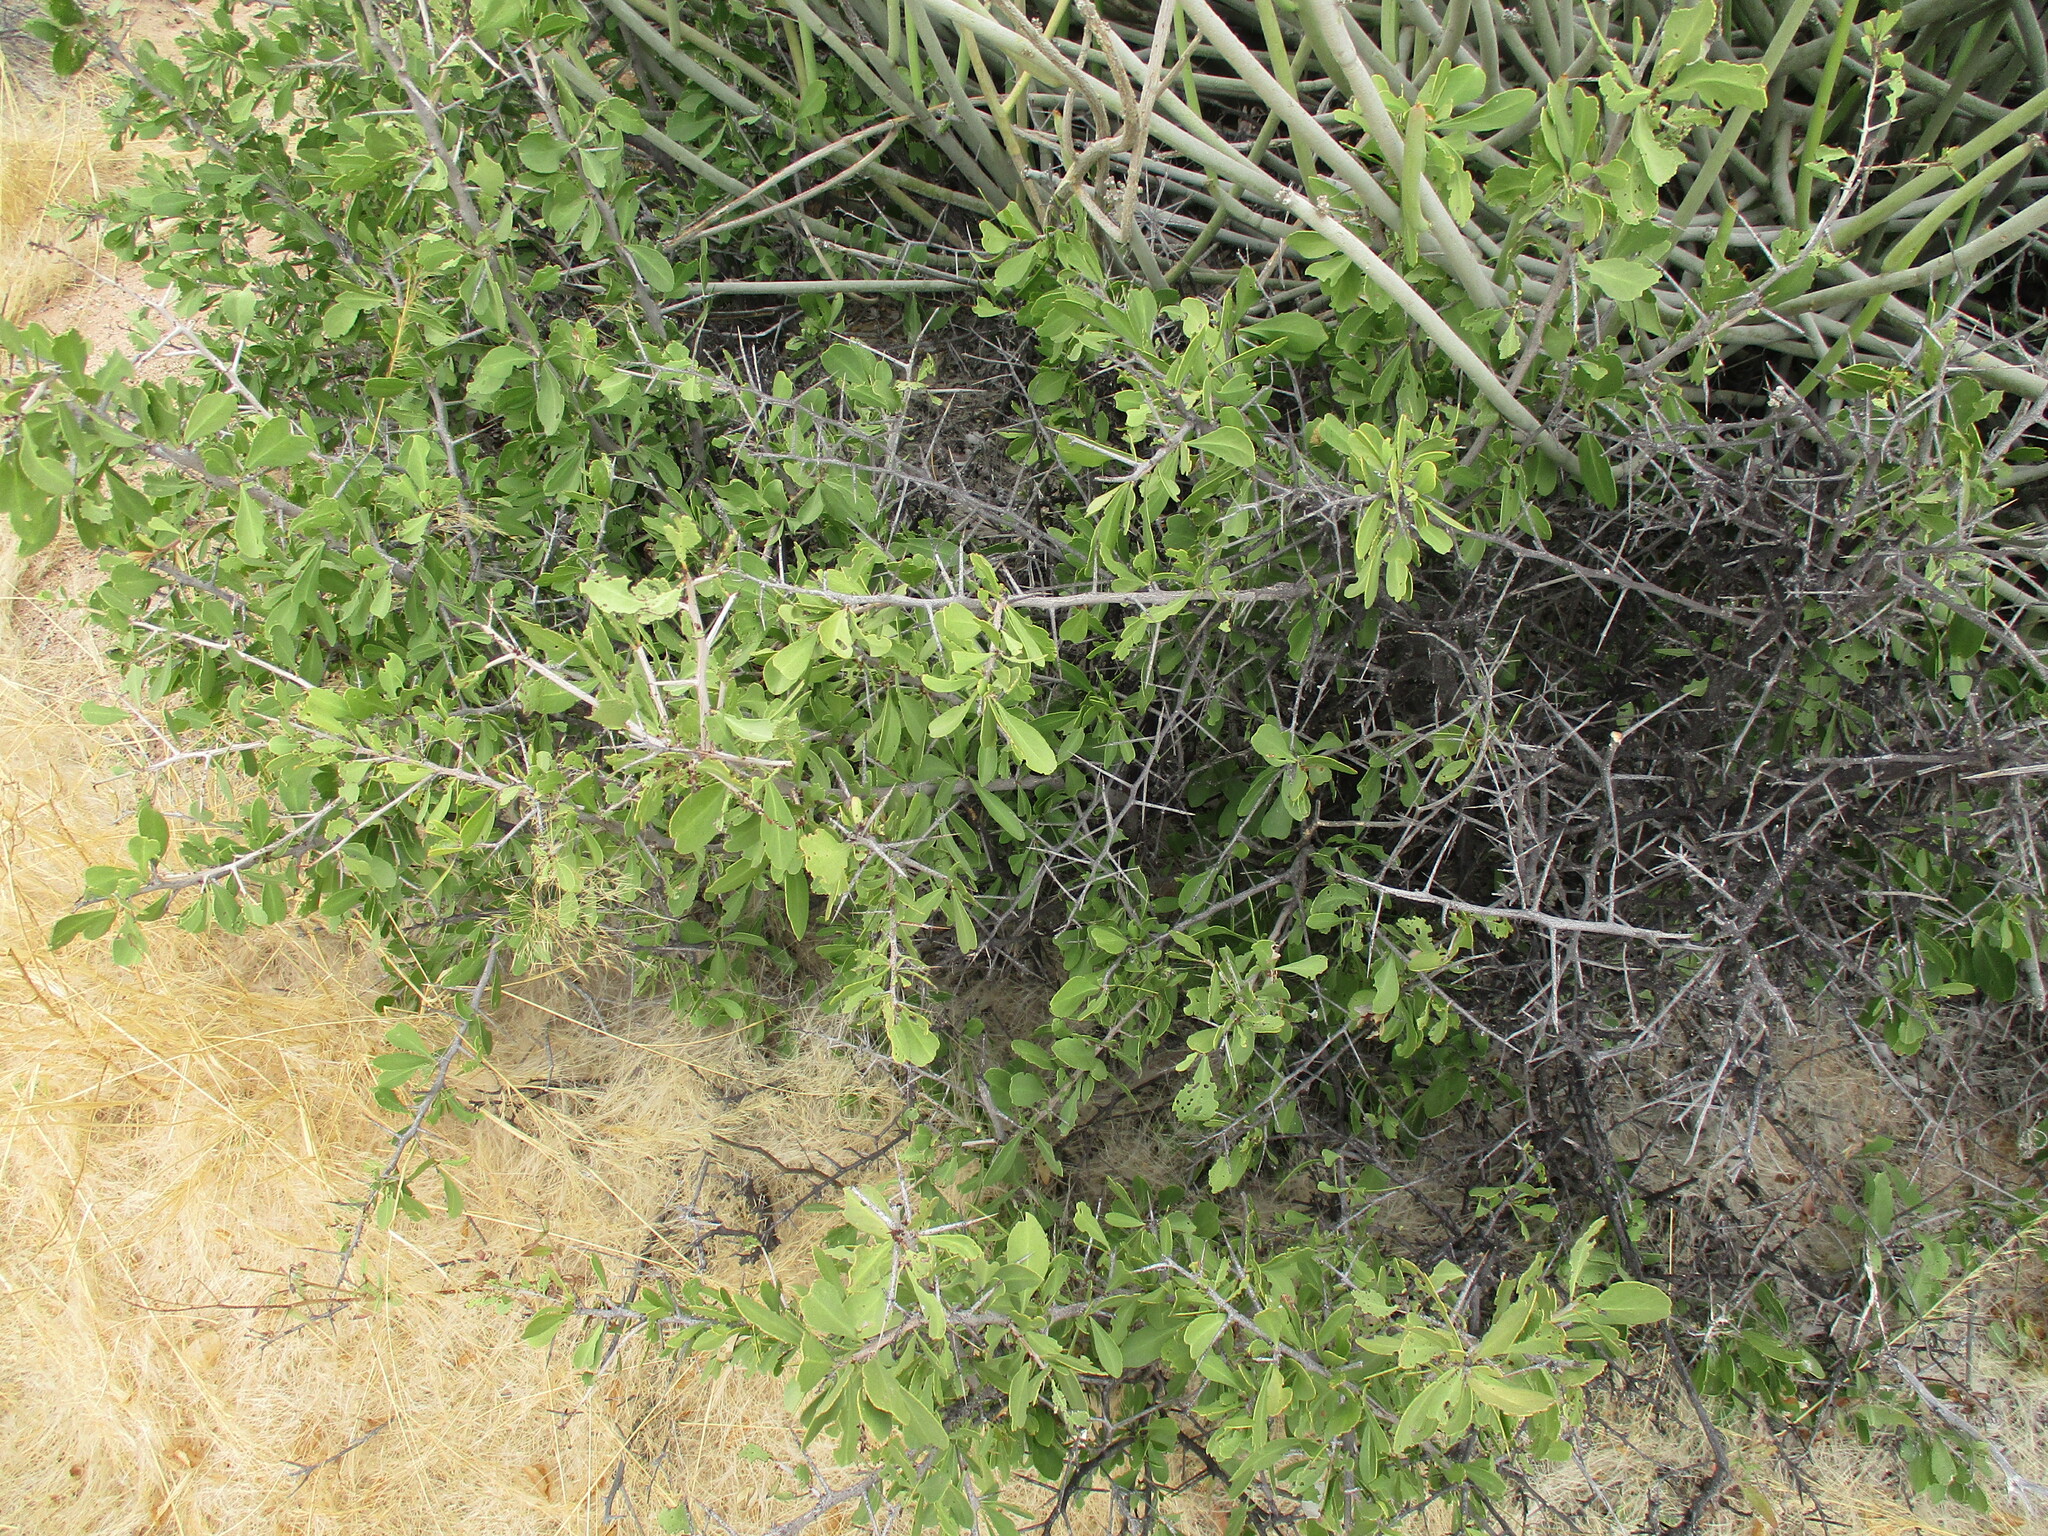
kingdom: Plantae
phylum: Tracheophyta
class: Magnoliopsida
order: Celastrales
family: Celastraceae
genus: Gymnosporia
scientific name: Gymnosporia senegalensis
